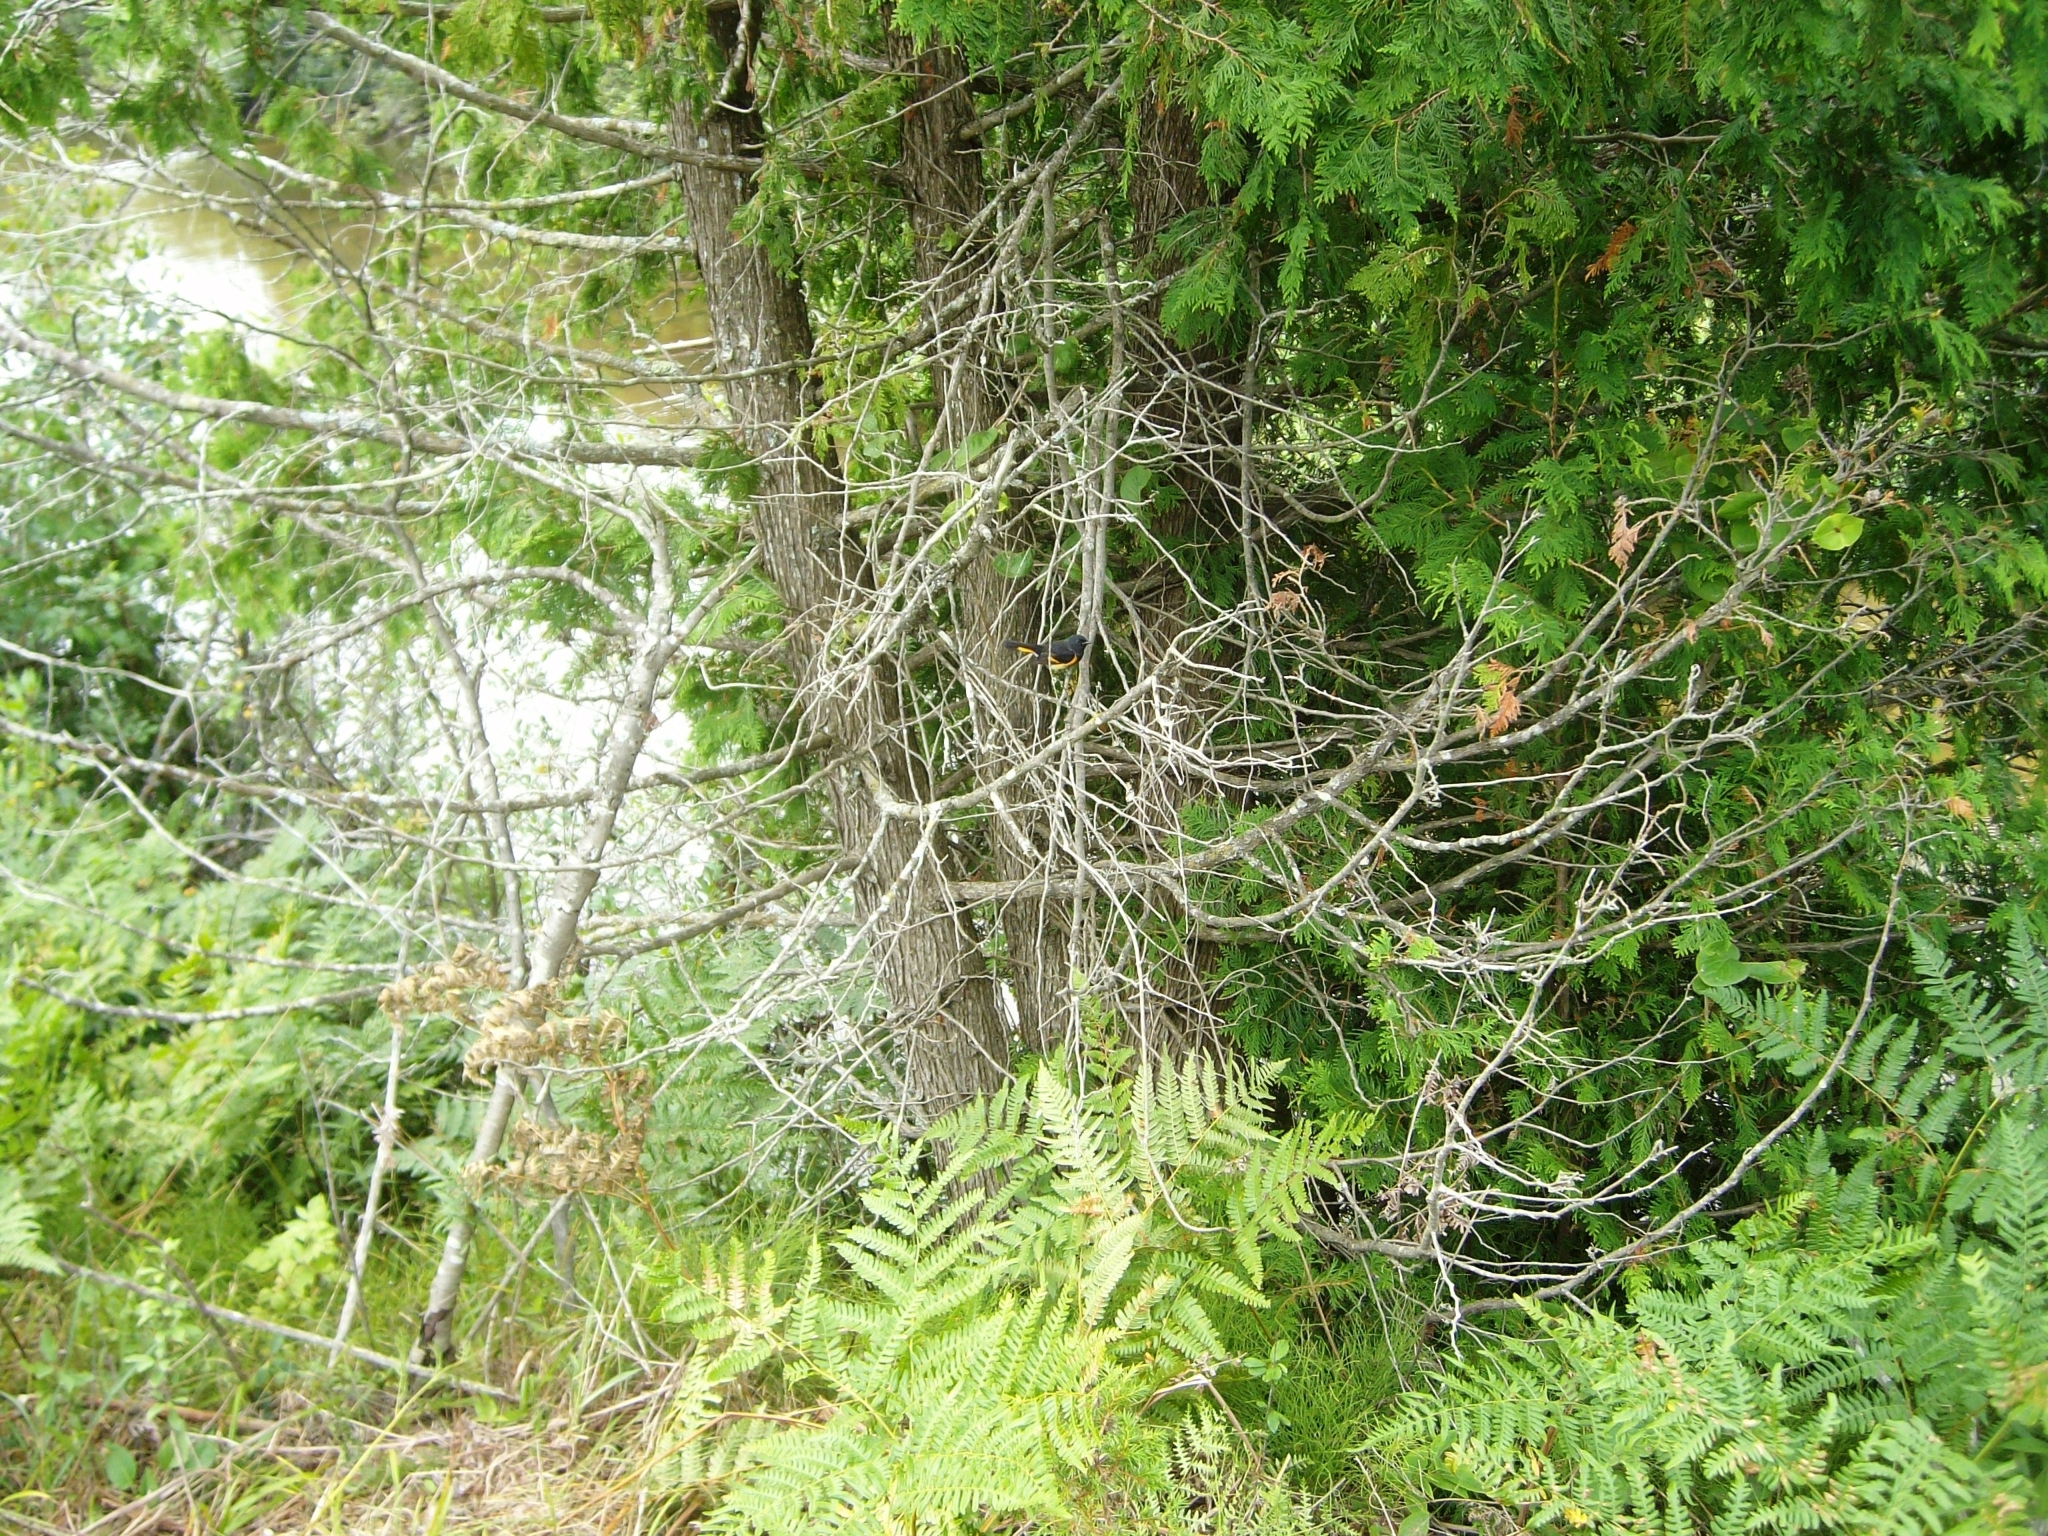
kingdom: Animalia
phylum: Chordata
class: Aves
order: Passeriformes
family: Parulidae
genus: Setophaga
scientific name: Setophaga ruticilla
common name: American redstart
